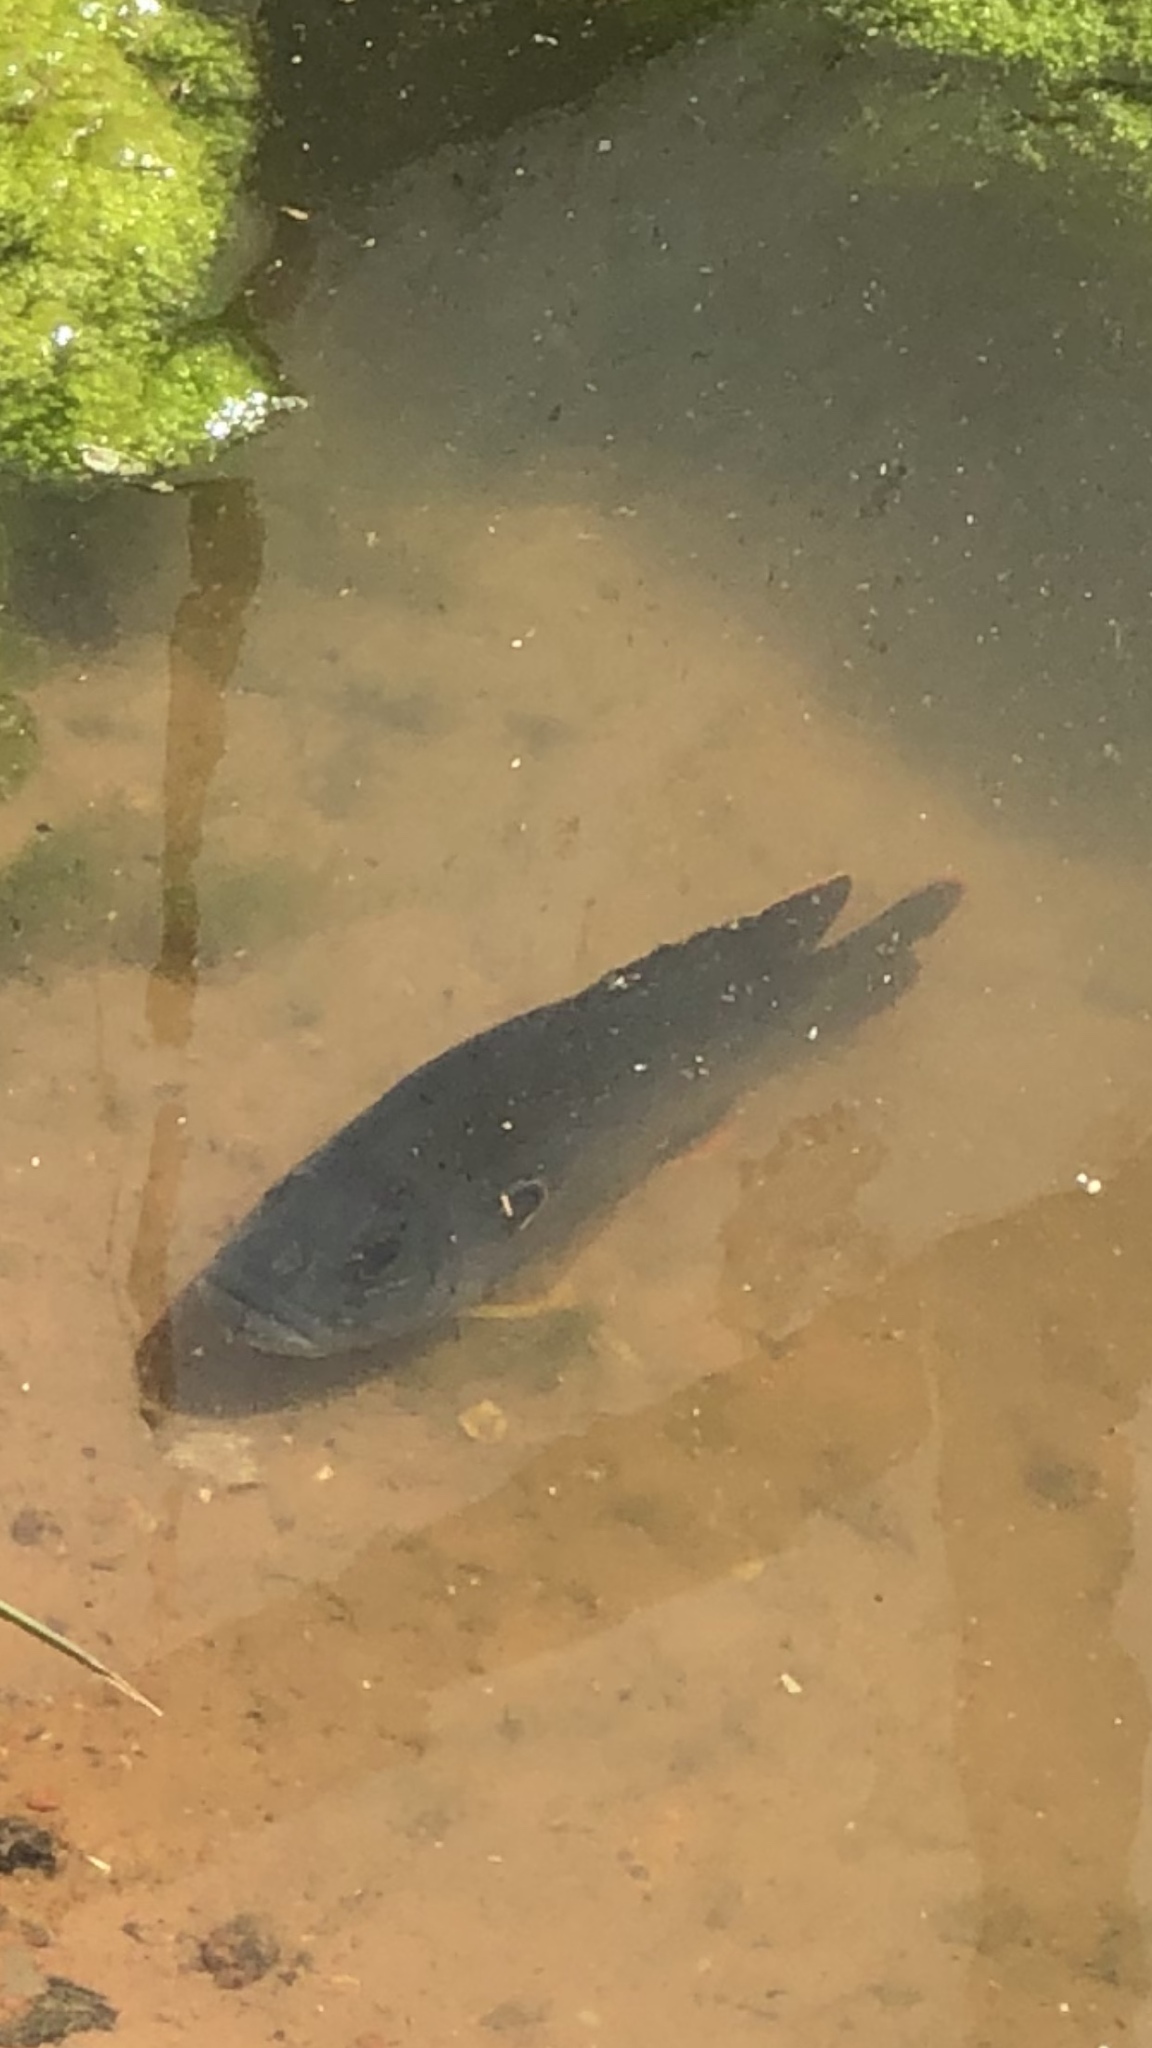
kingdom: Animalia
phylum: Chordata
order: Perciformes
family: Centrarchidae
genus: Lepomis
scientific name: Lepomis cyanellus
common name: Green sunfish
